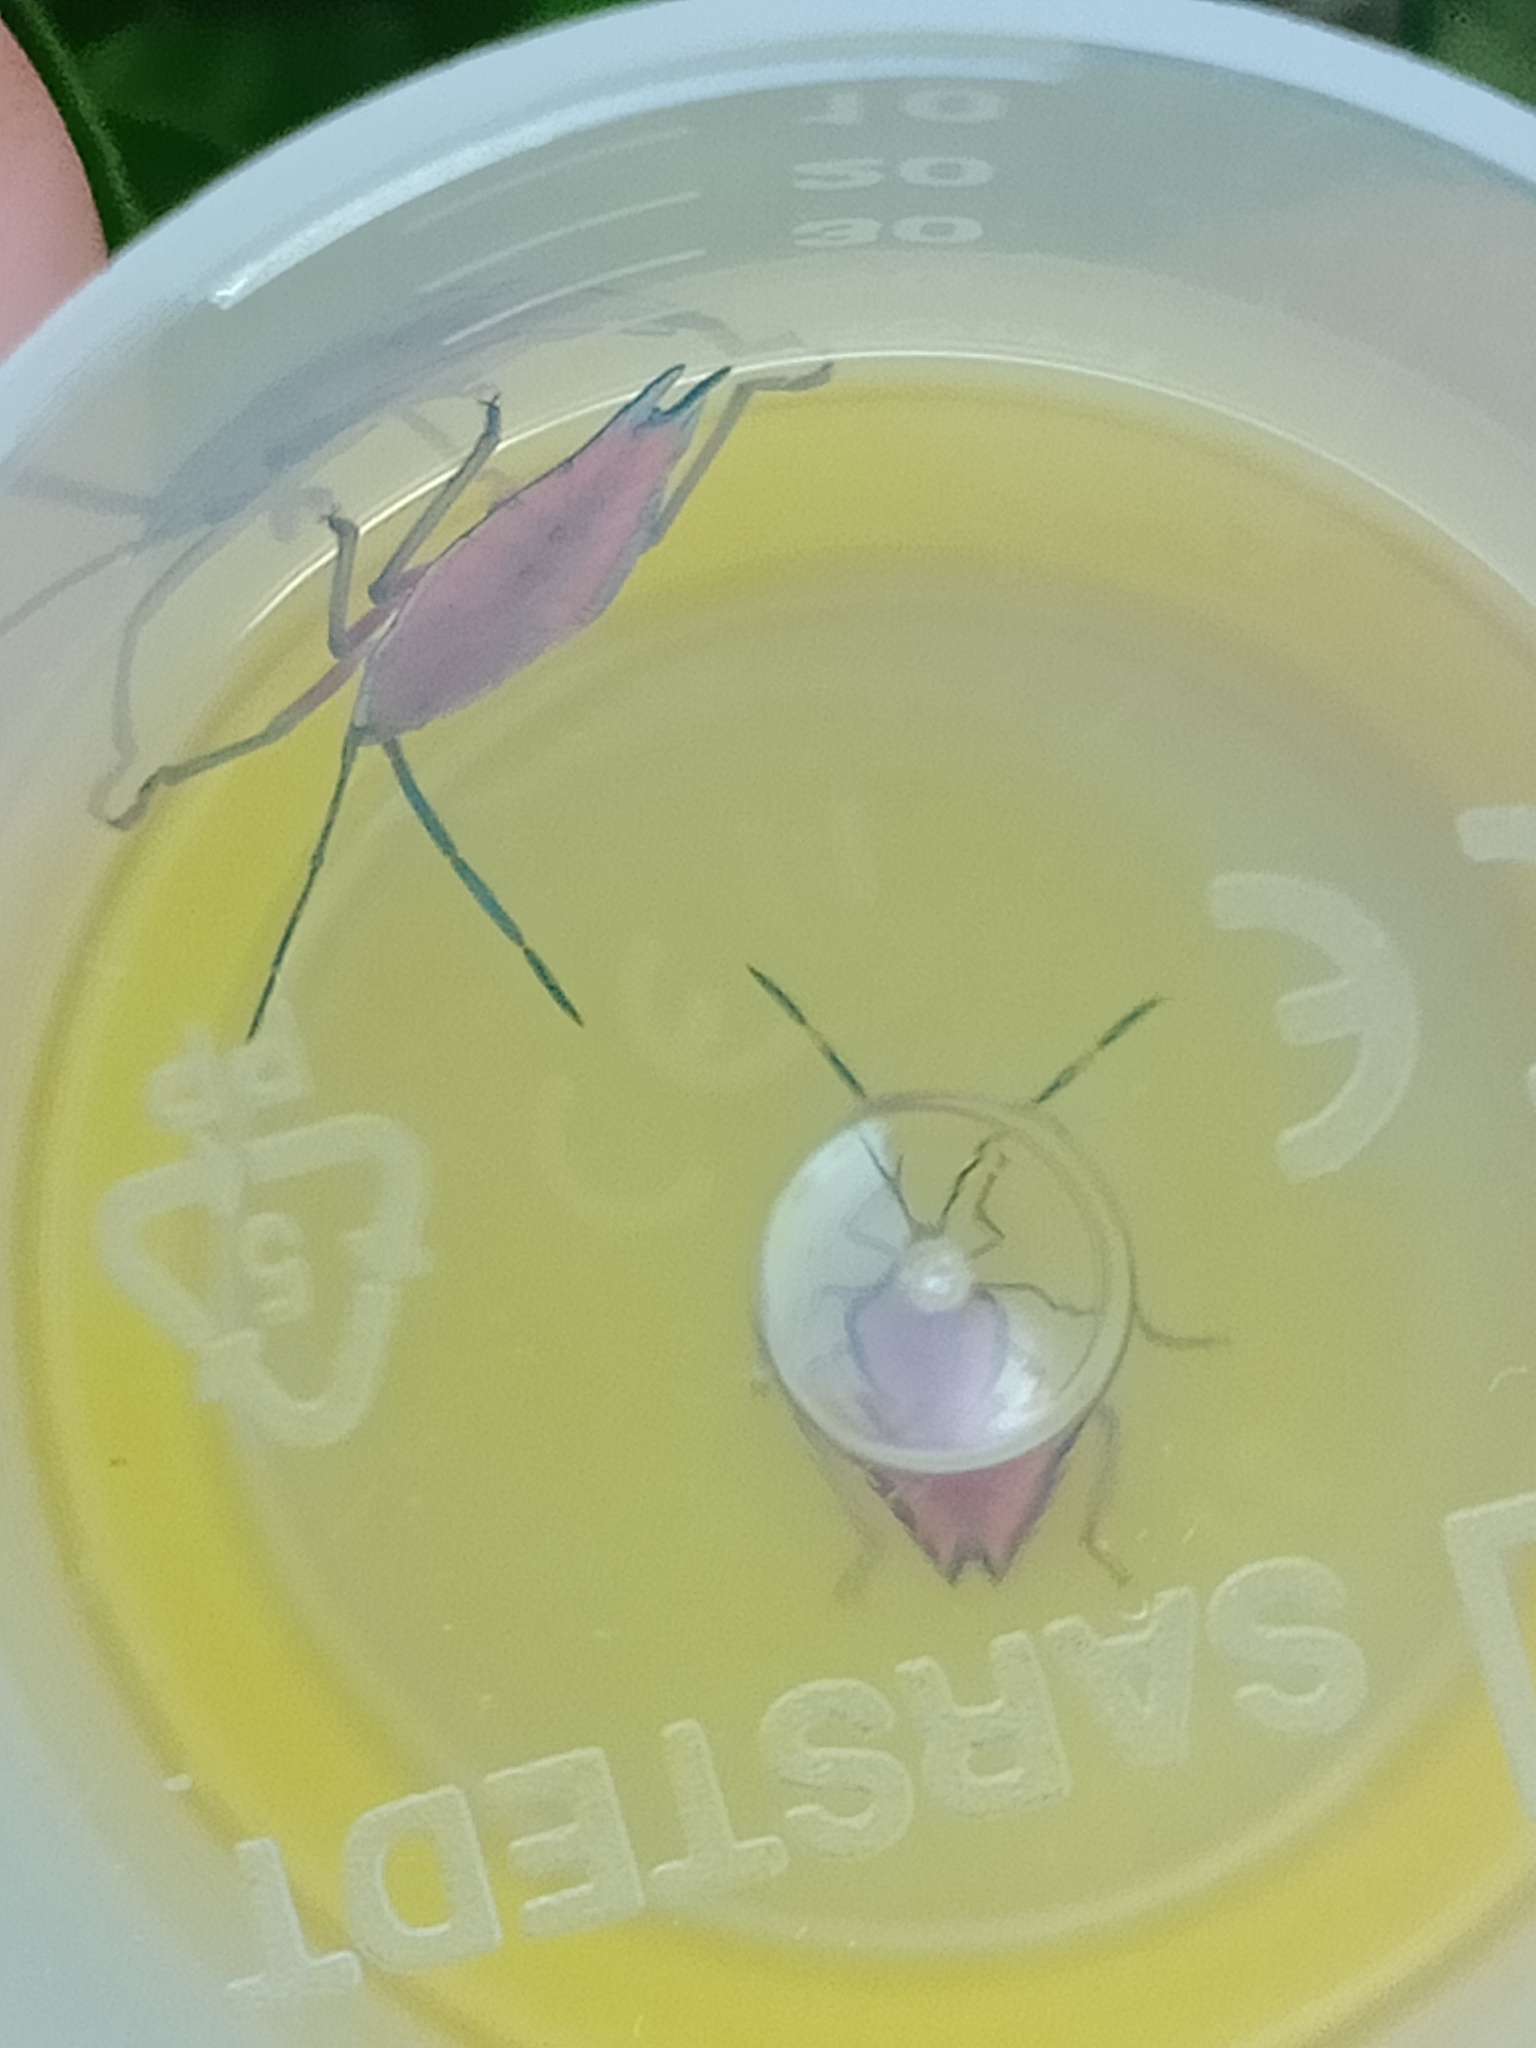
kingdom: Animalia
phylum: Arthropoda
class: Insecta
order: Hemiptera
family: Tessaratomidae
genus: Lyramorpha
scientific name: Lyramorpha rosea
